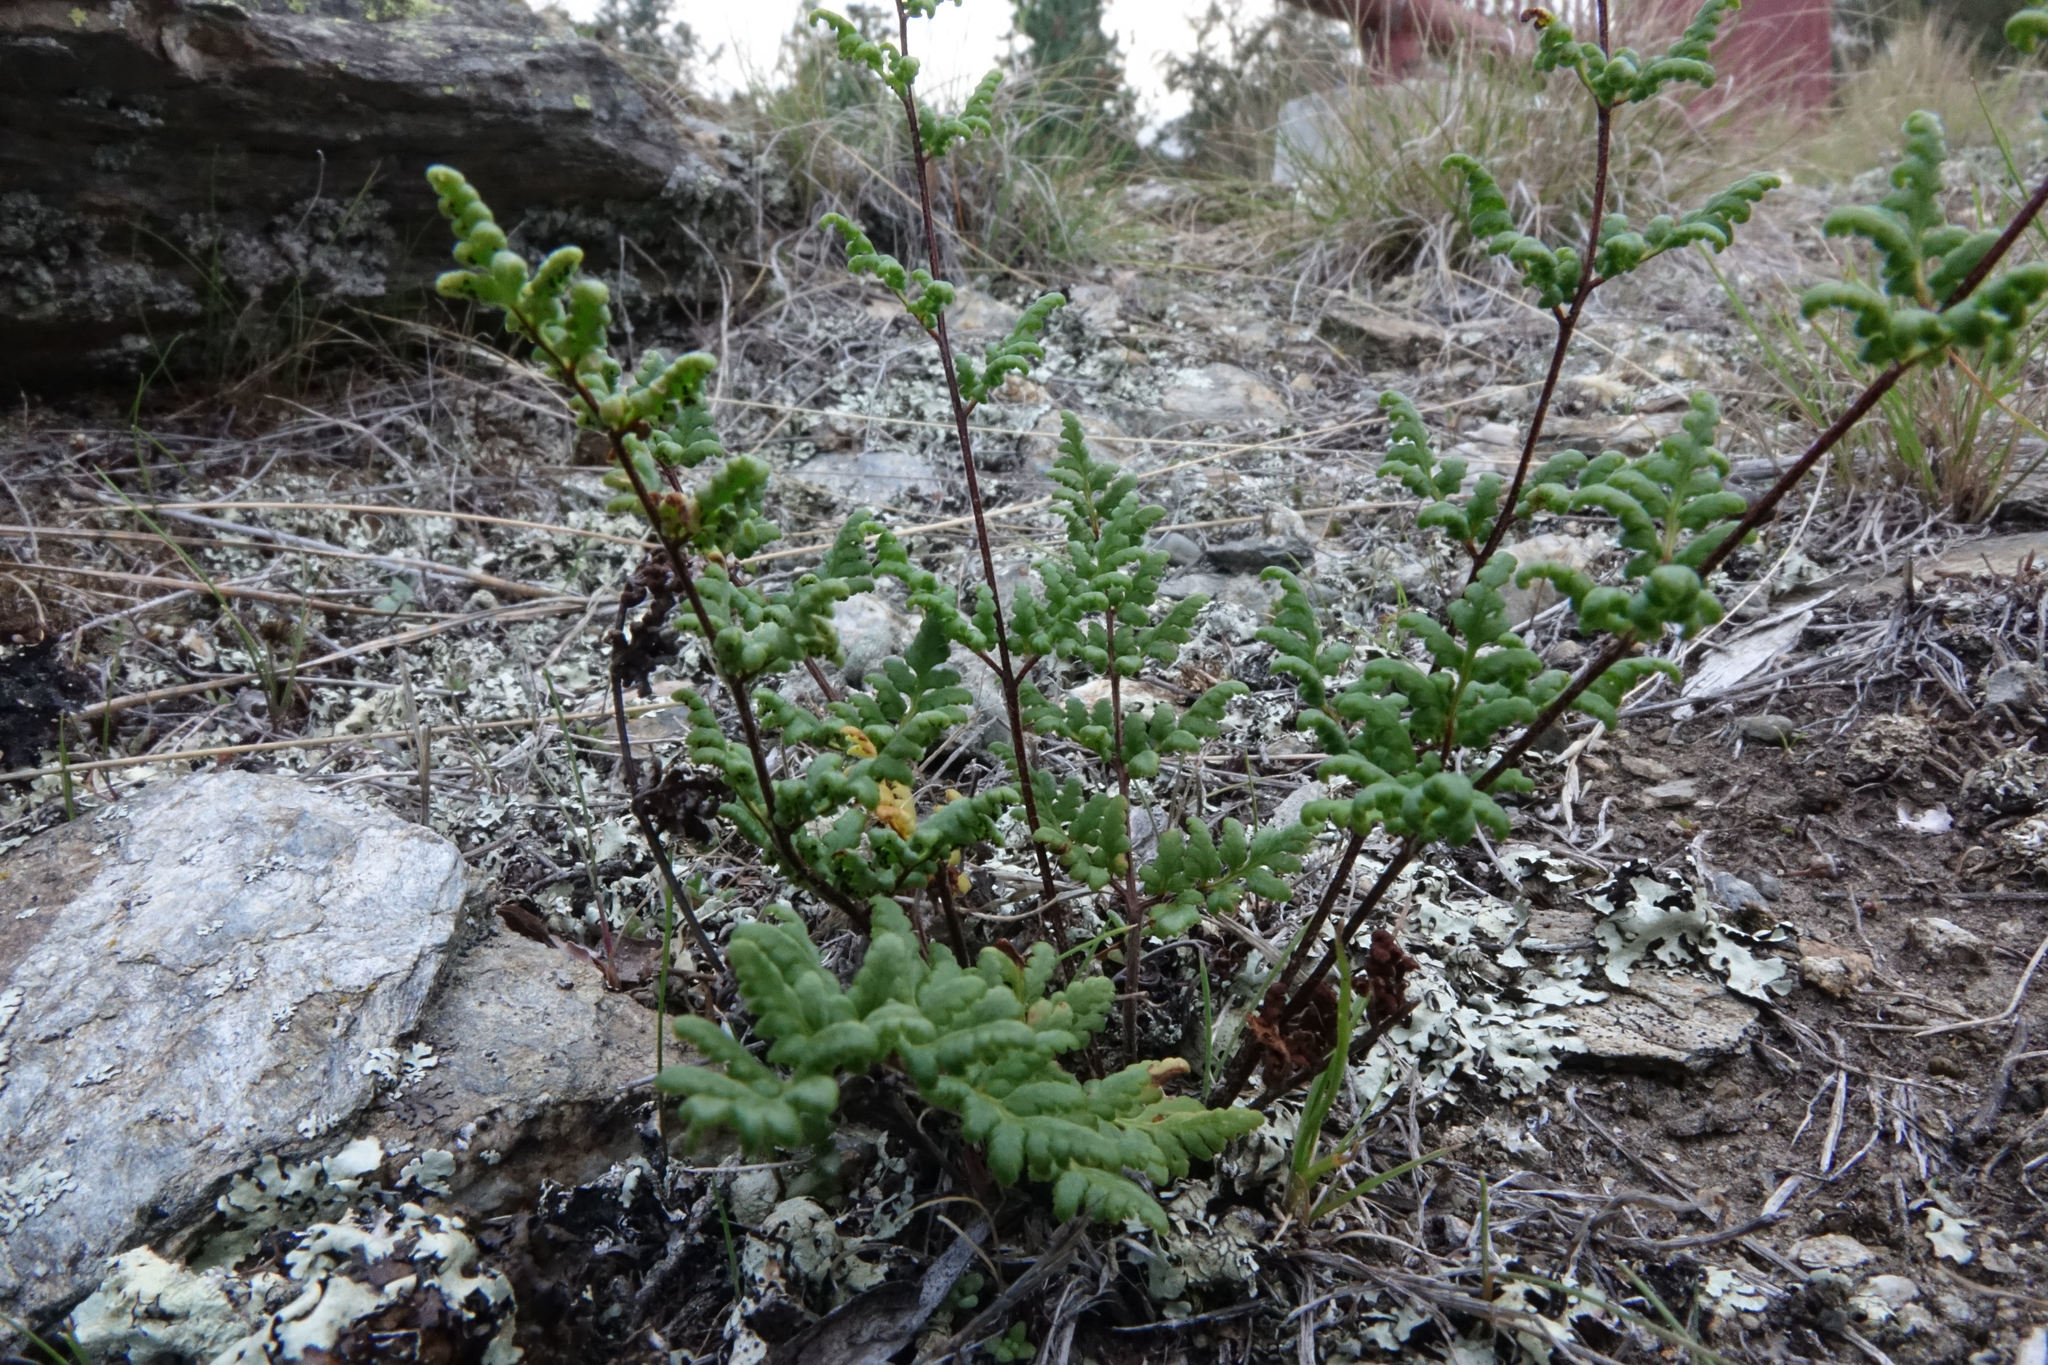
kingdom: Plantae
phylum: Tracheophyta
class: Polypodiopsida
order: Polypodiales
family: Pteridaceae
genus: Cheilanthes
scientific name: Cheilanthes sieberi
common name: Mulga fern
